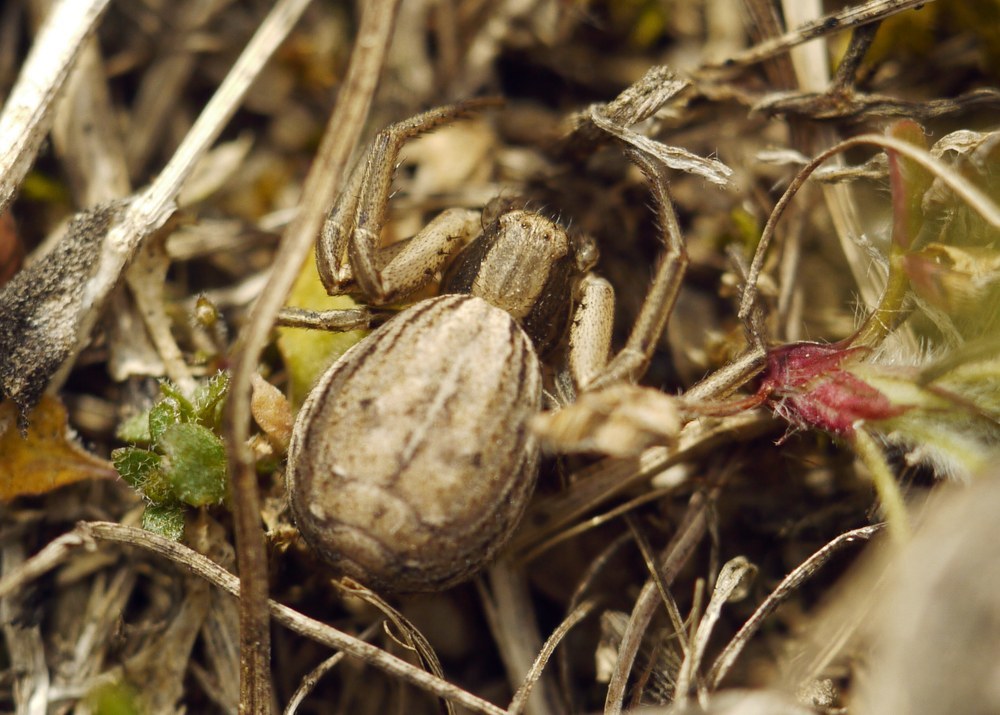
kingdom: Animalia
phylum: Arthropoda
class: Arachnida
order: Araneae
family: Thomisidae
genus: Spiracme
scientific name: Spiracme striatipes
